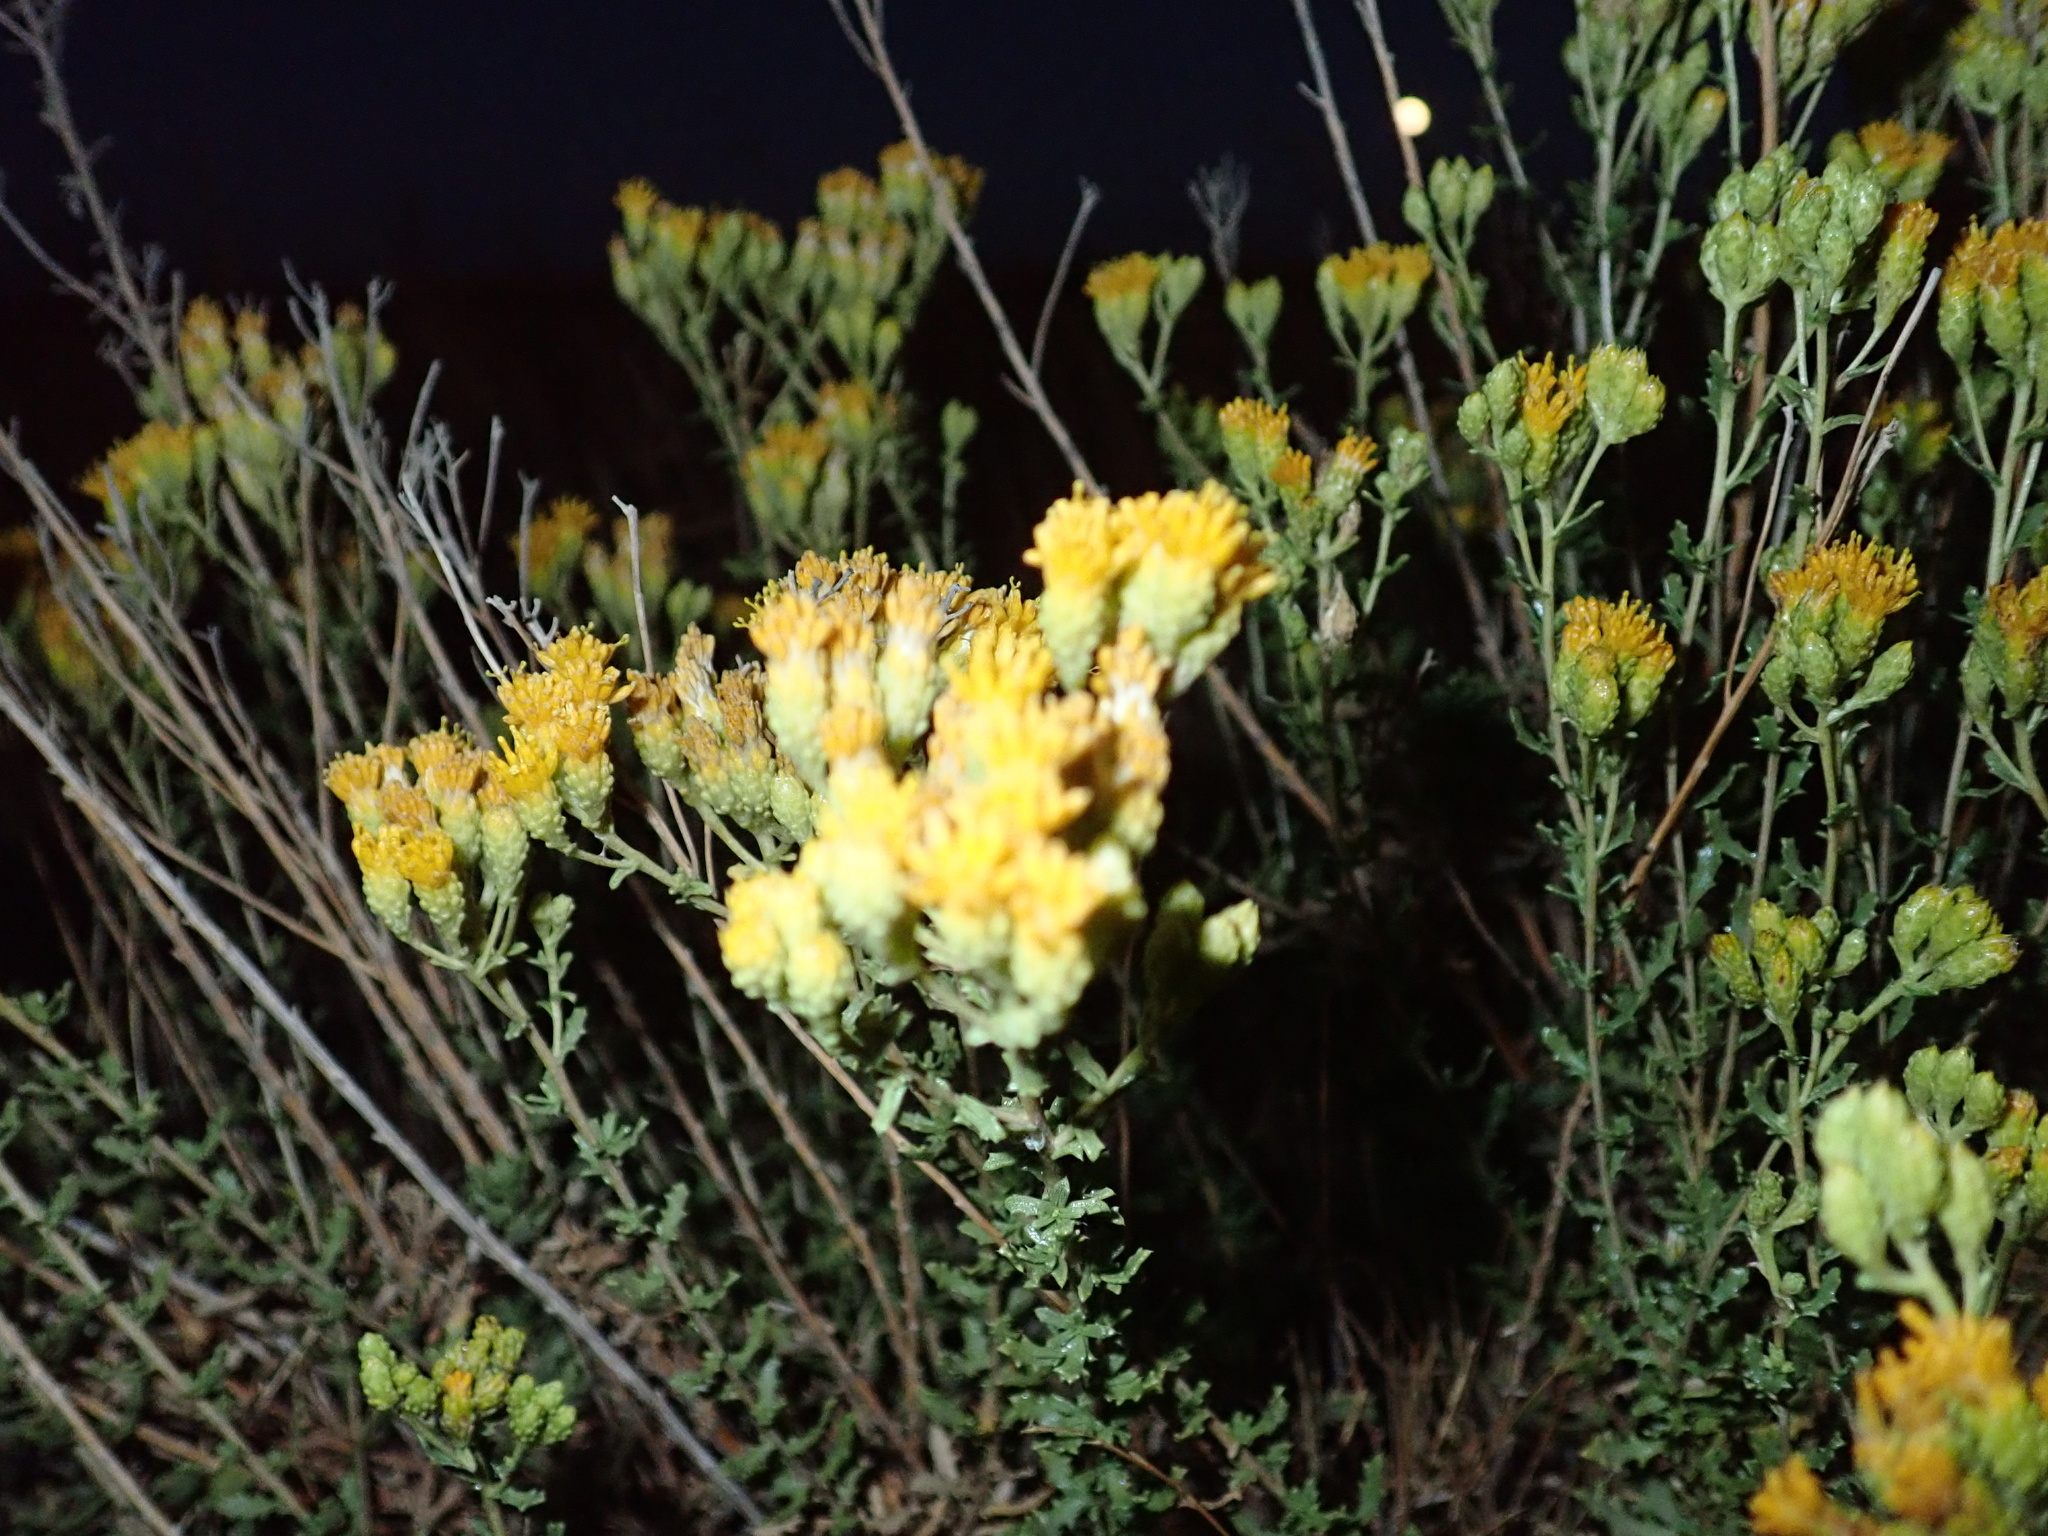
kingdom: Plantae
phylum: Tracheophyta
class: Magnoliopsida
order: Asterales
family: Asteraceae
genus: Isocoma
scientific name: Isocoma arguta
